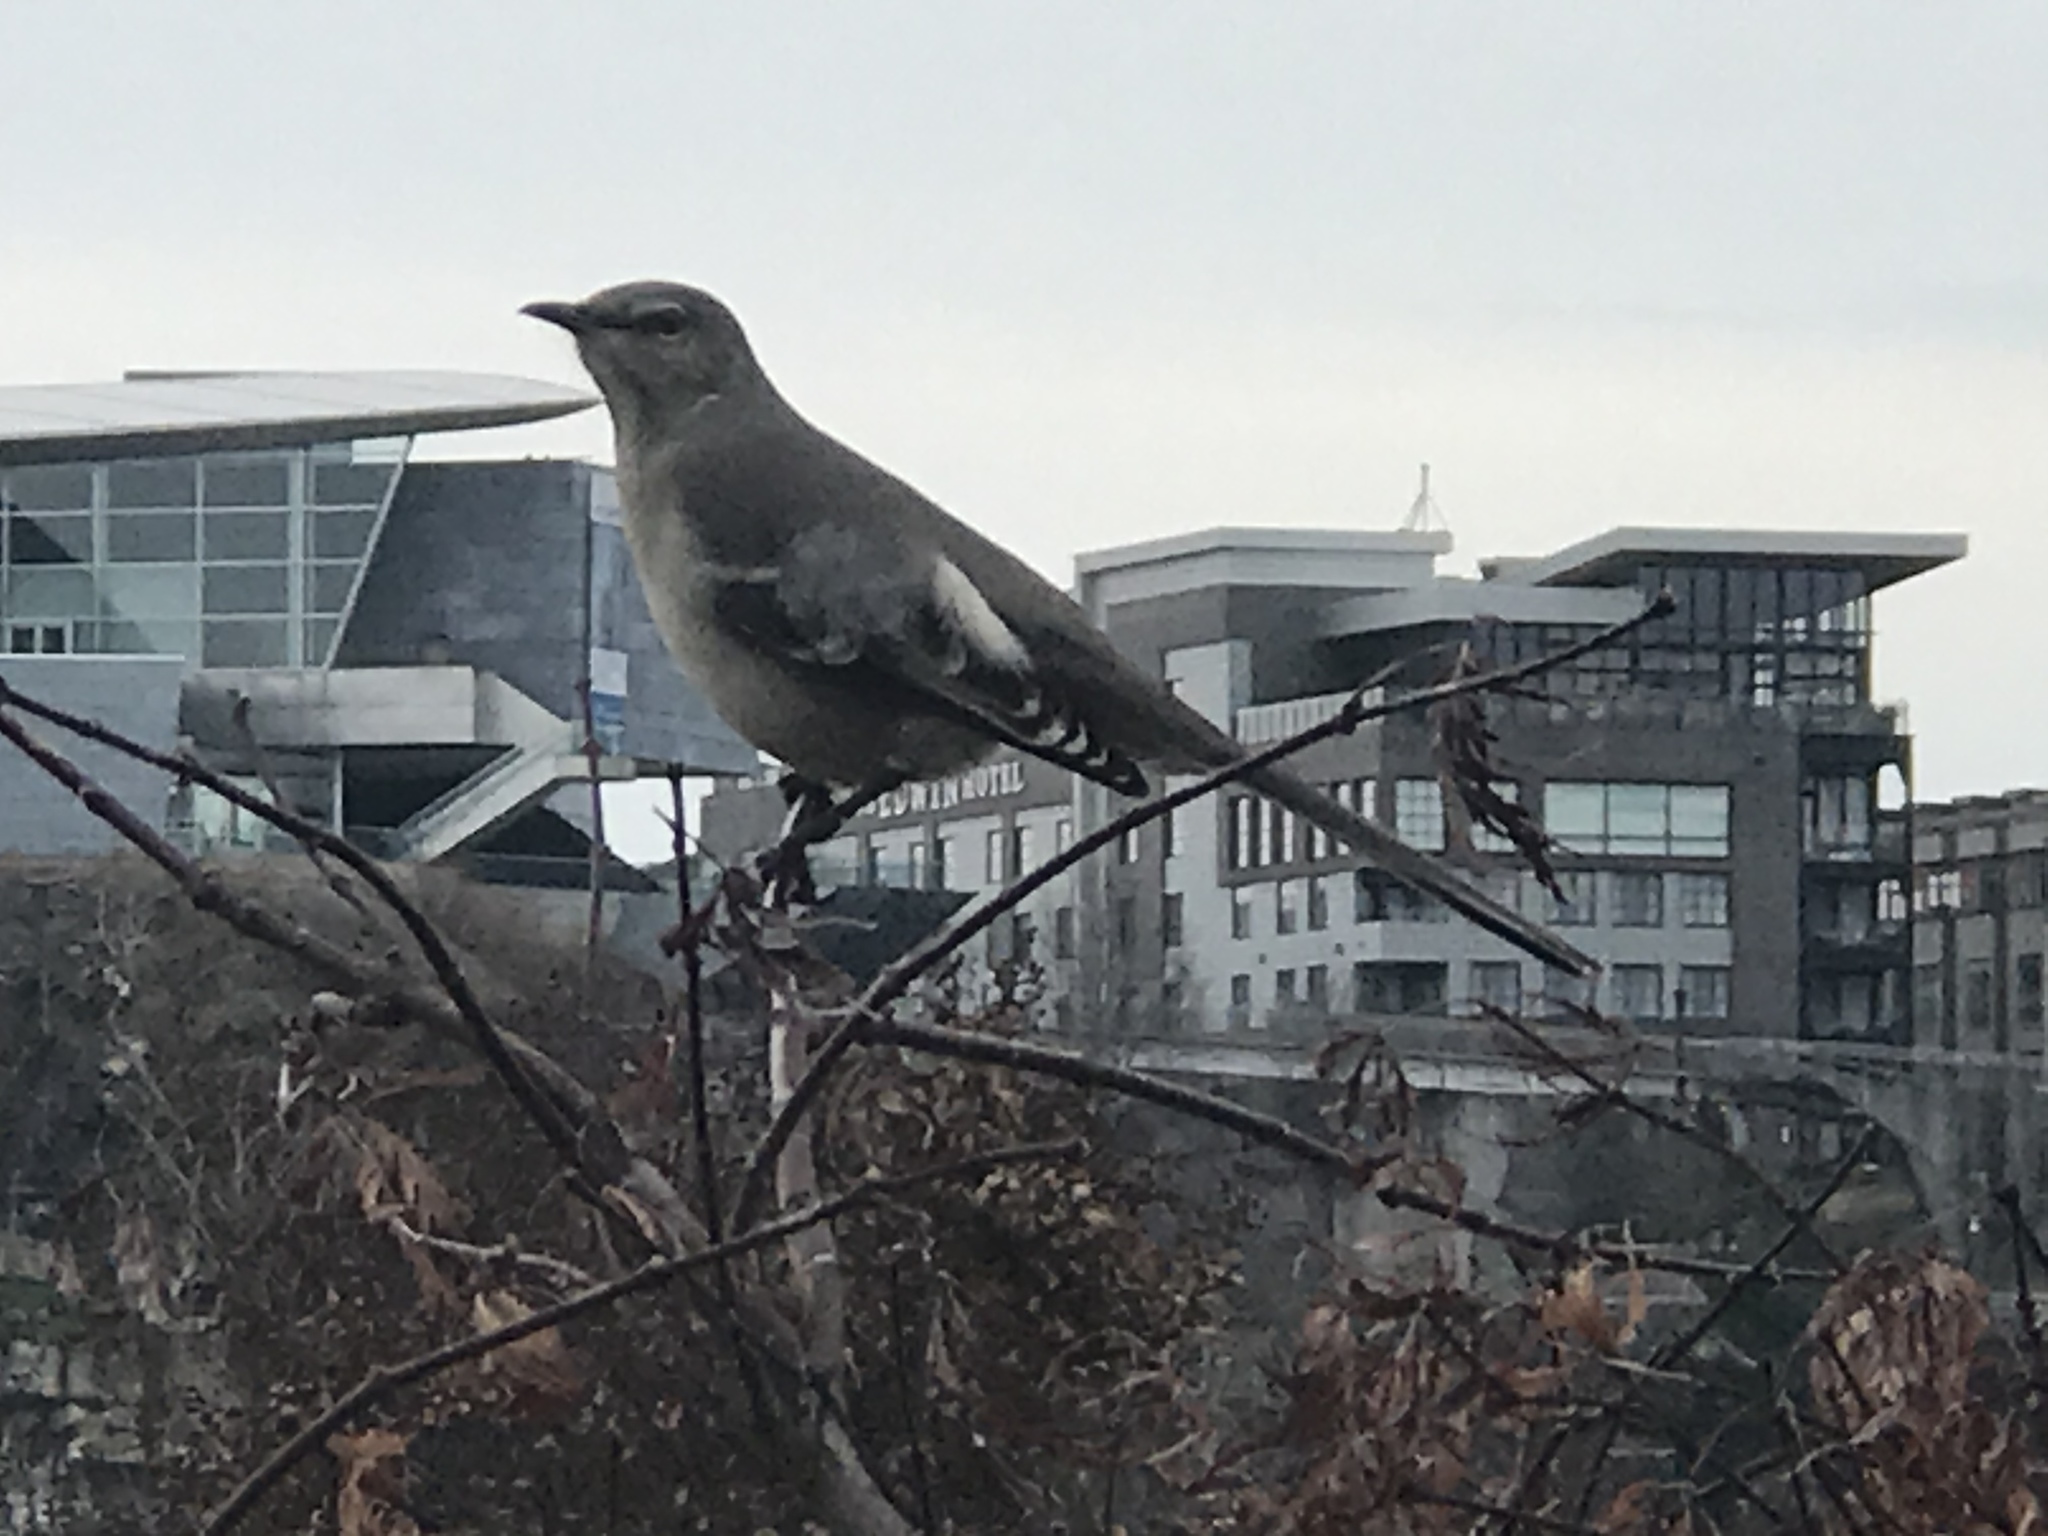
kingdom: Animalia
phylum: Chordata
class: Aves
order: Passeriformes
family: Mimidae
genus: Mimus
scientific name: Mimus polyglottos
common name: Northern mockingbird
